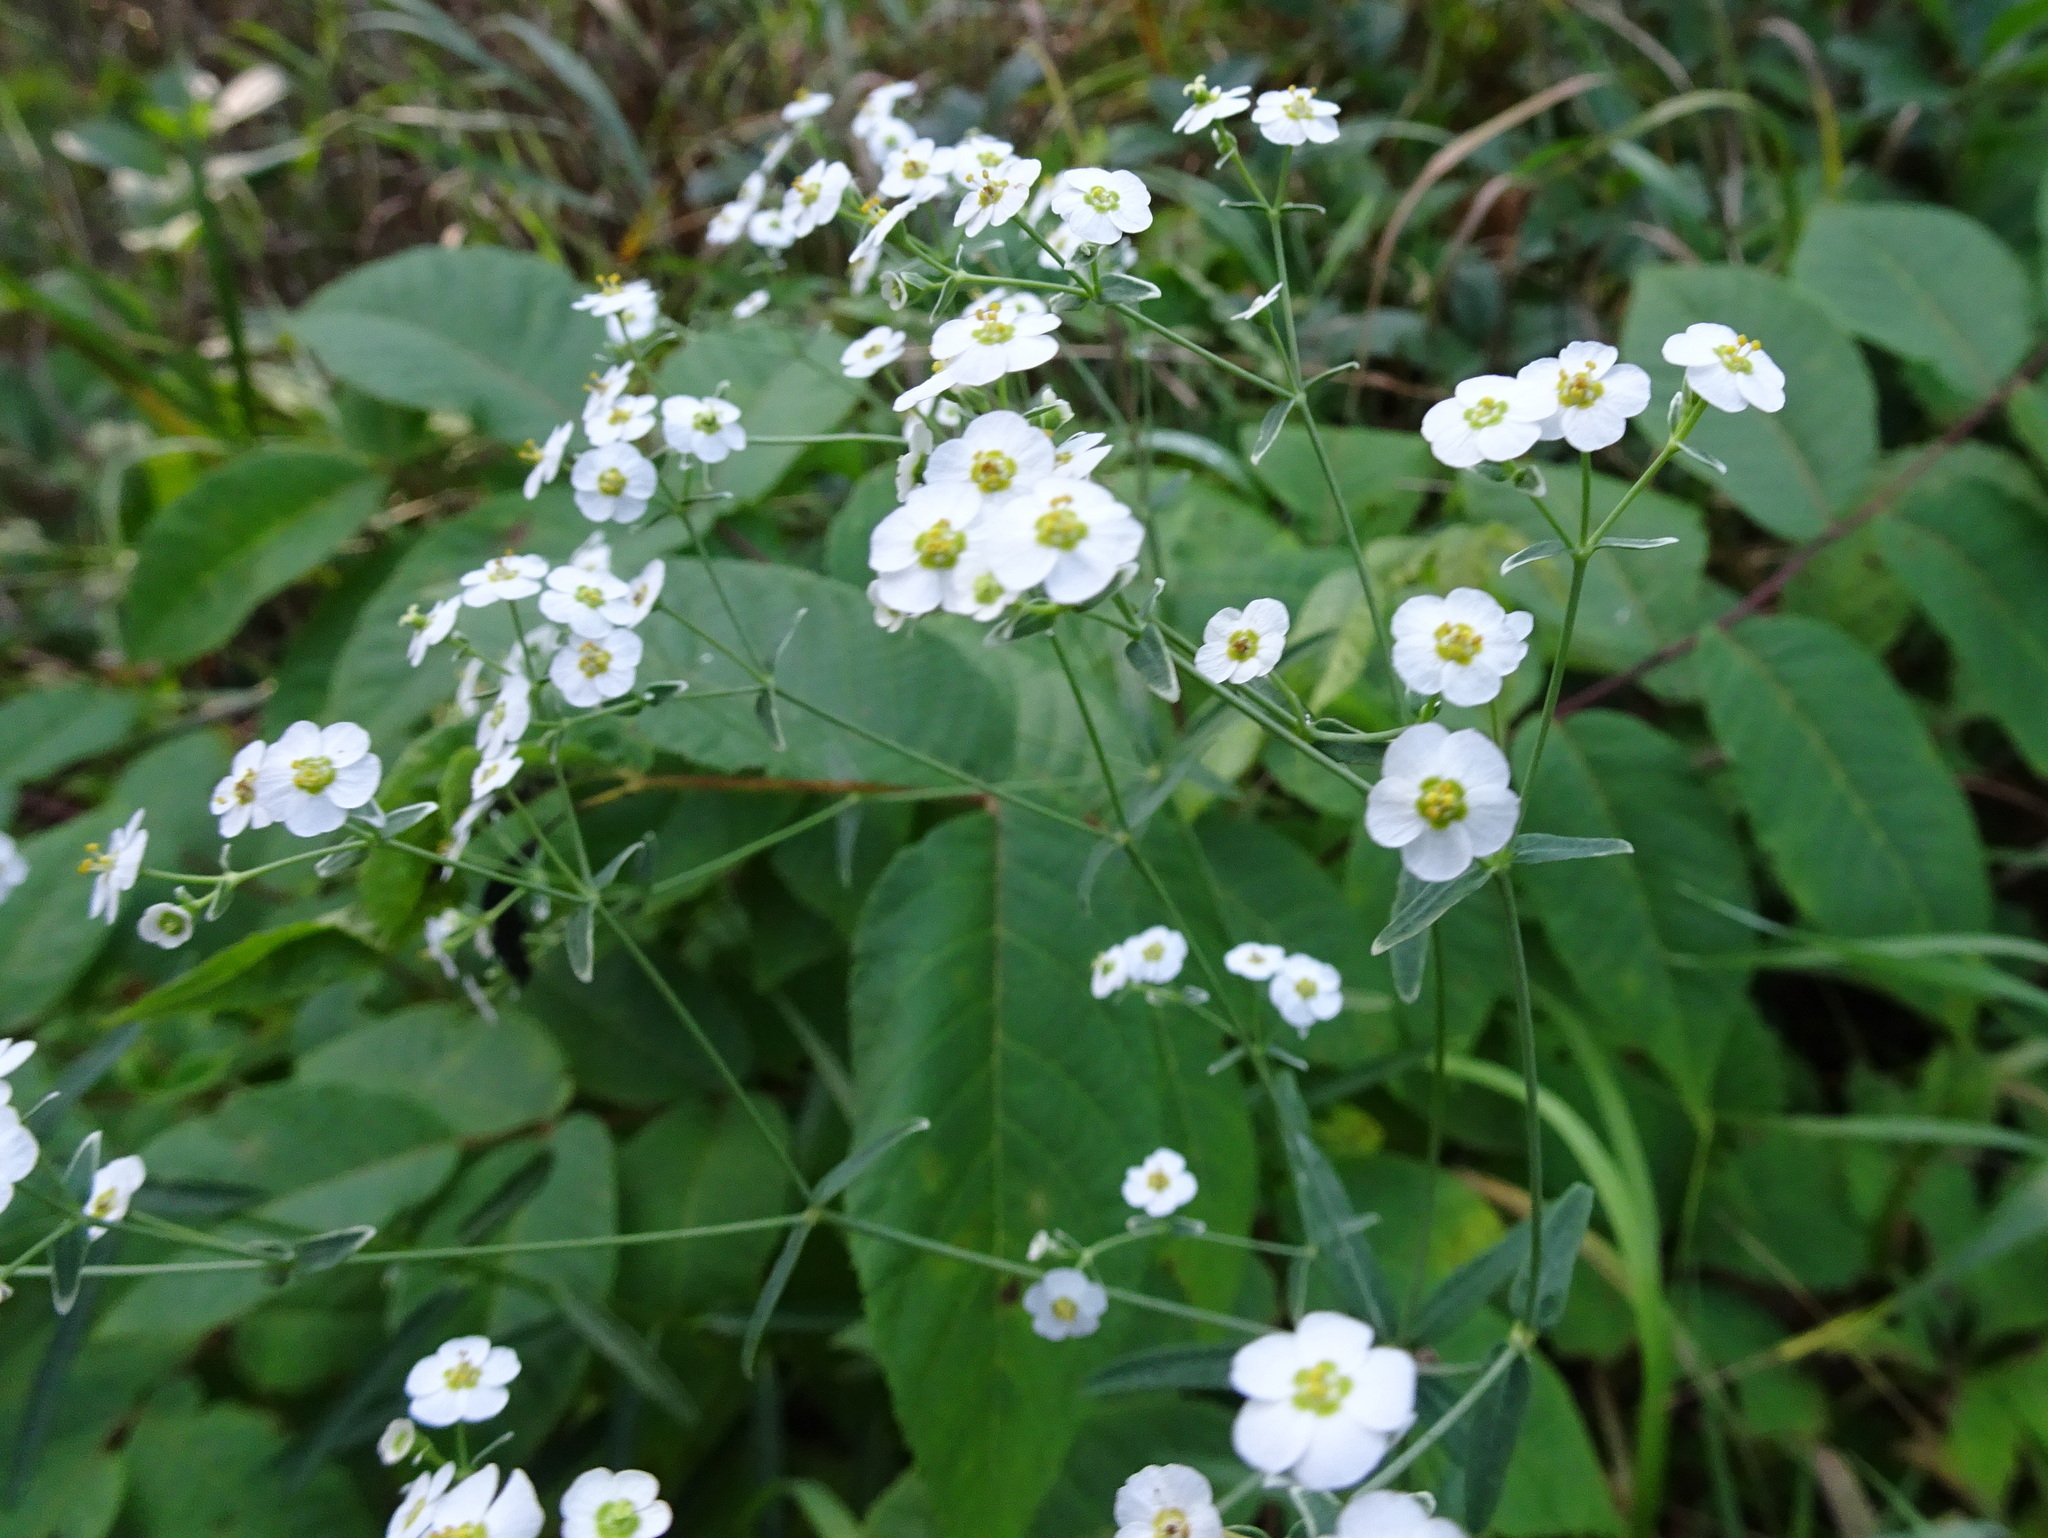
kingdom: Plantae
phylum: Tracheophyta
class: Magnoliopsida
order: Malpighiales
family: Euphorbiaceae
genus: Euphorbia
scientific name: Euphorbia corollata
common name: Flowering spurge
